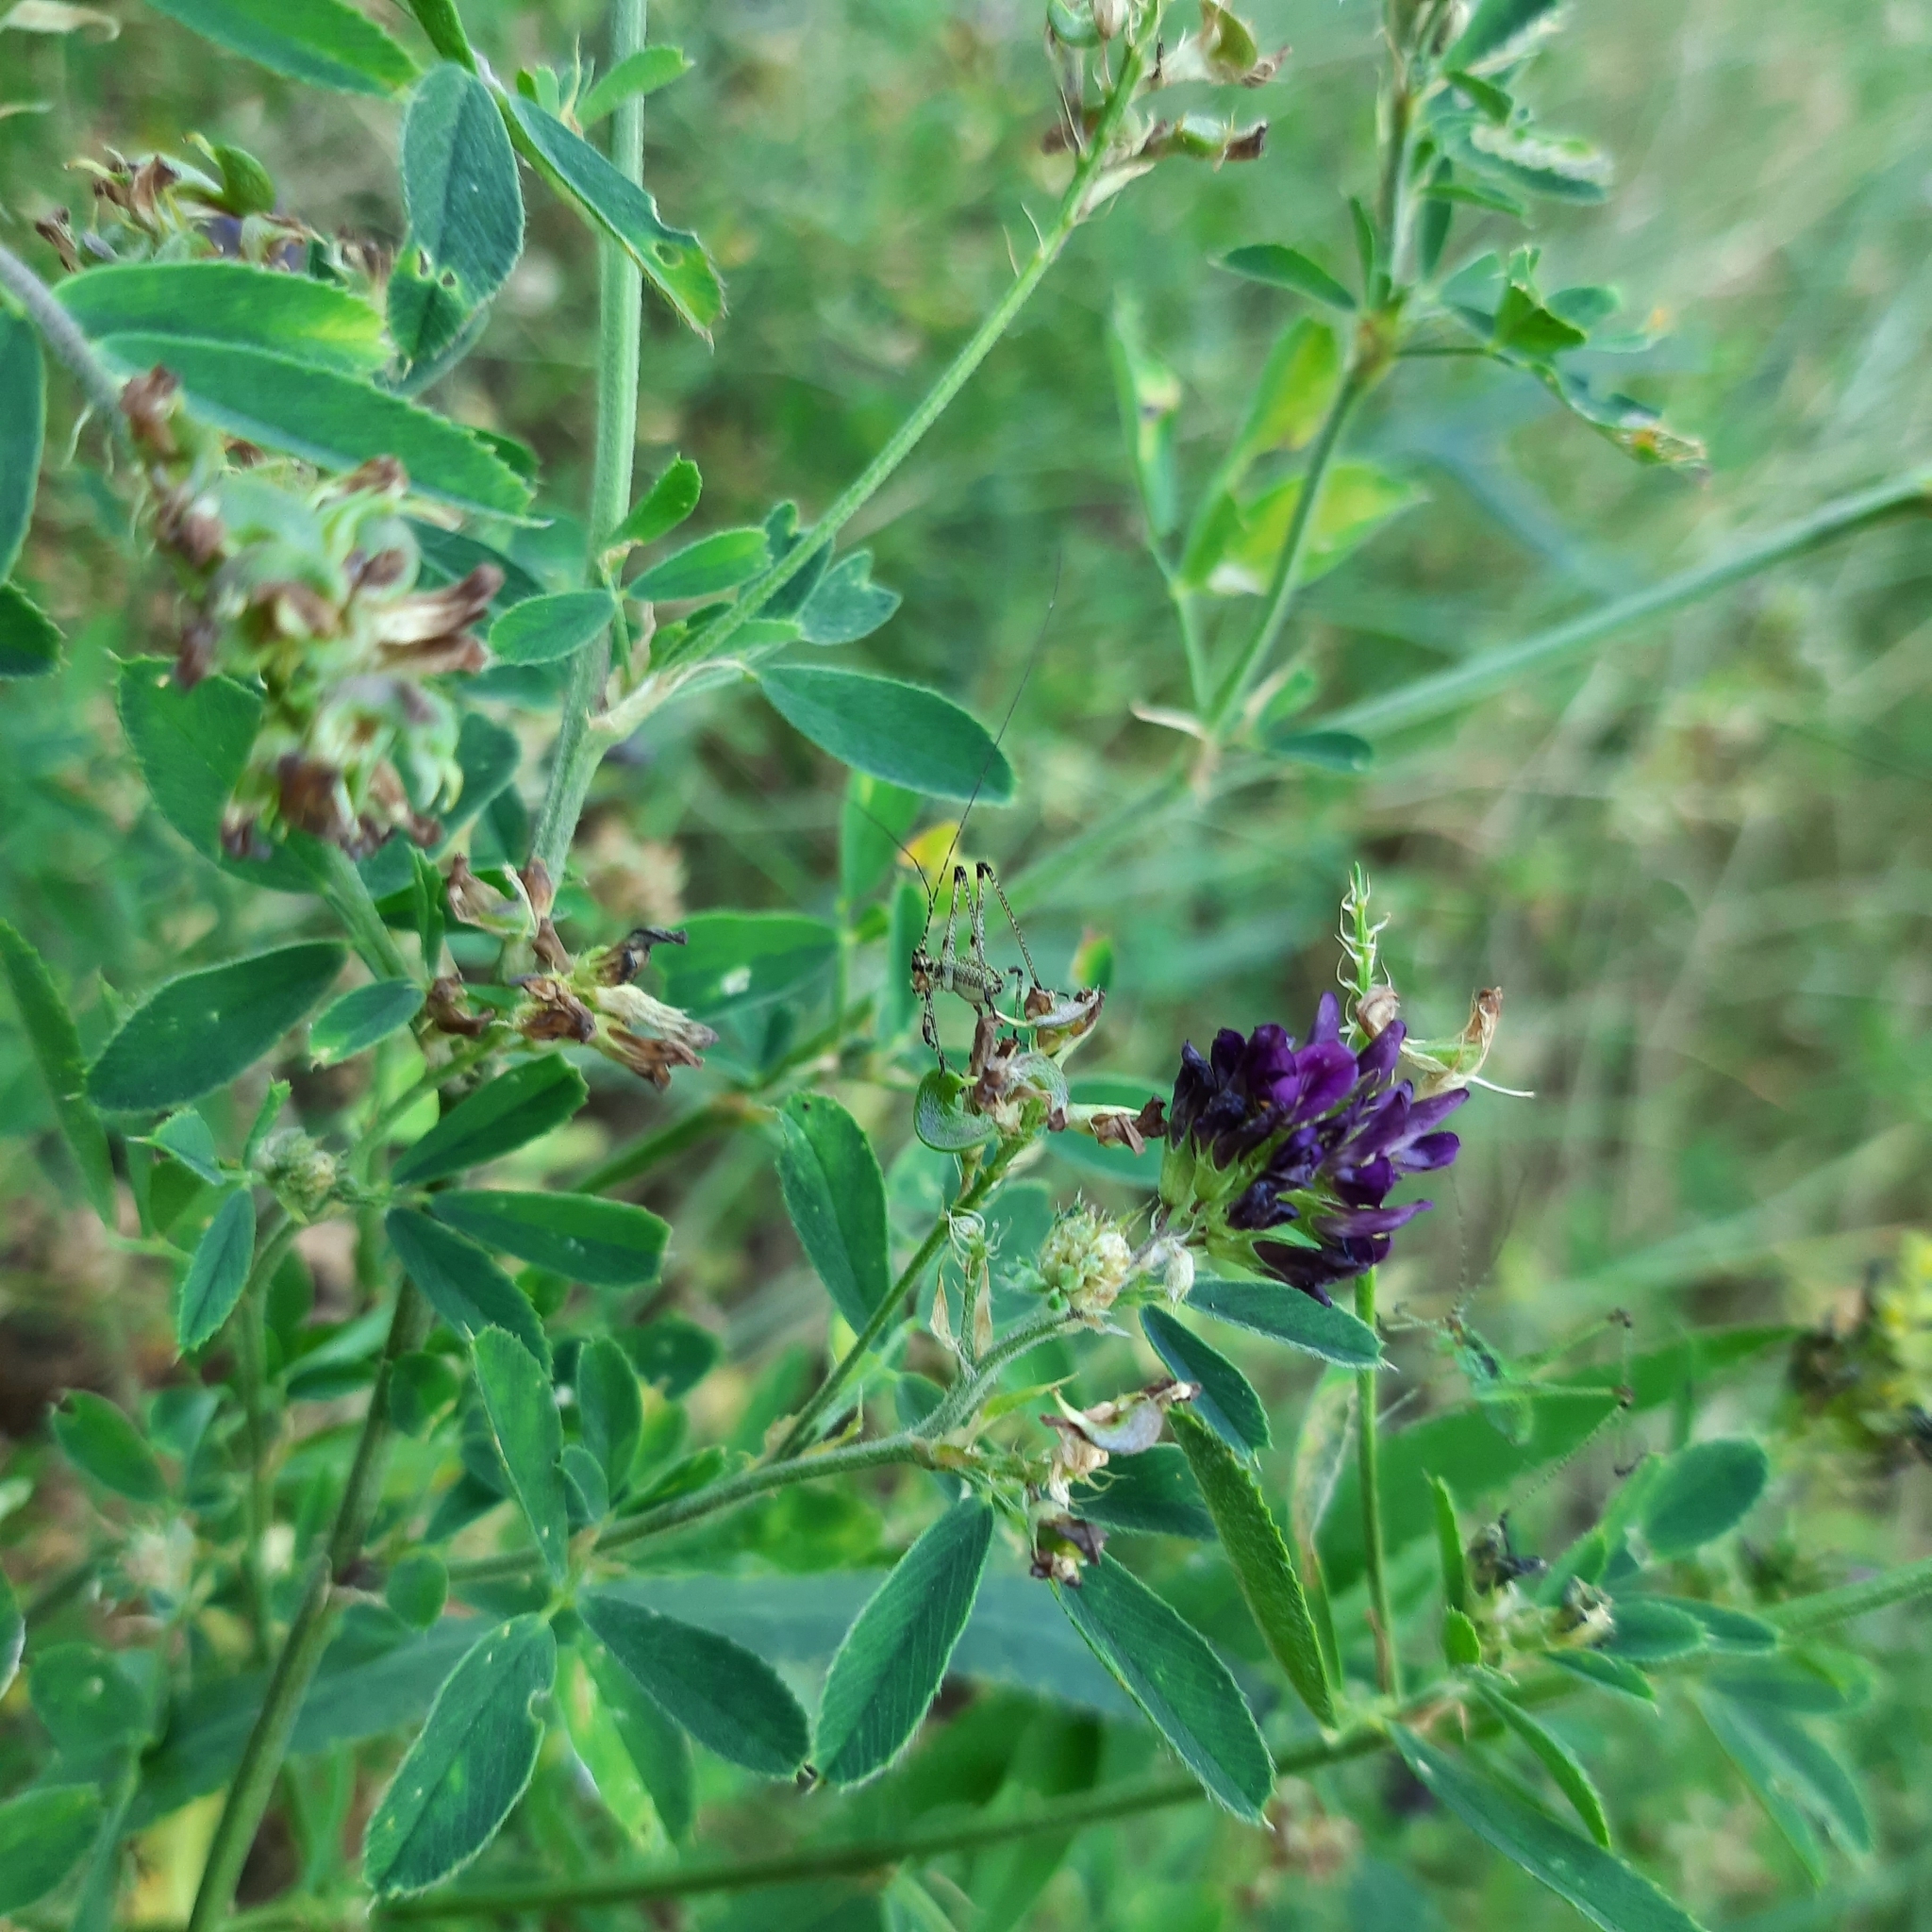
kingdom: Plantae
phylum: Tracheophyta
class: Magnoliopsida
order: Fabales
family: Fabaceae
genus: Medicago
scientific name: Medicago sativa
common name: Alfalfa
